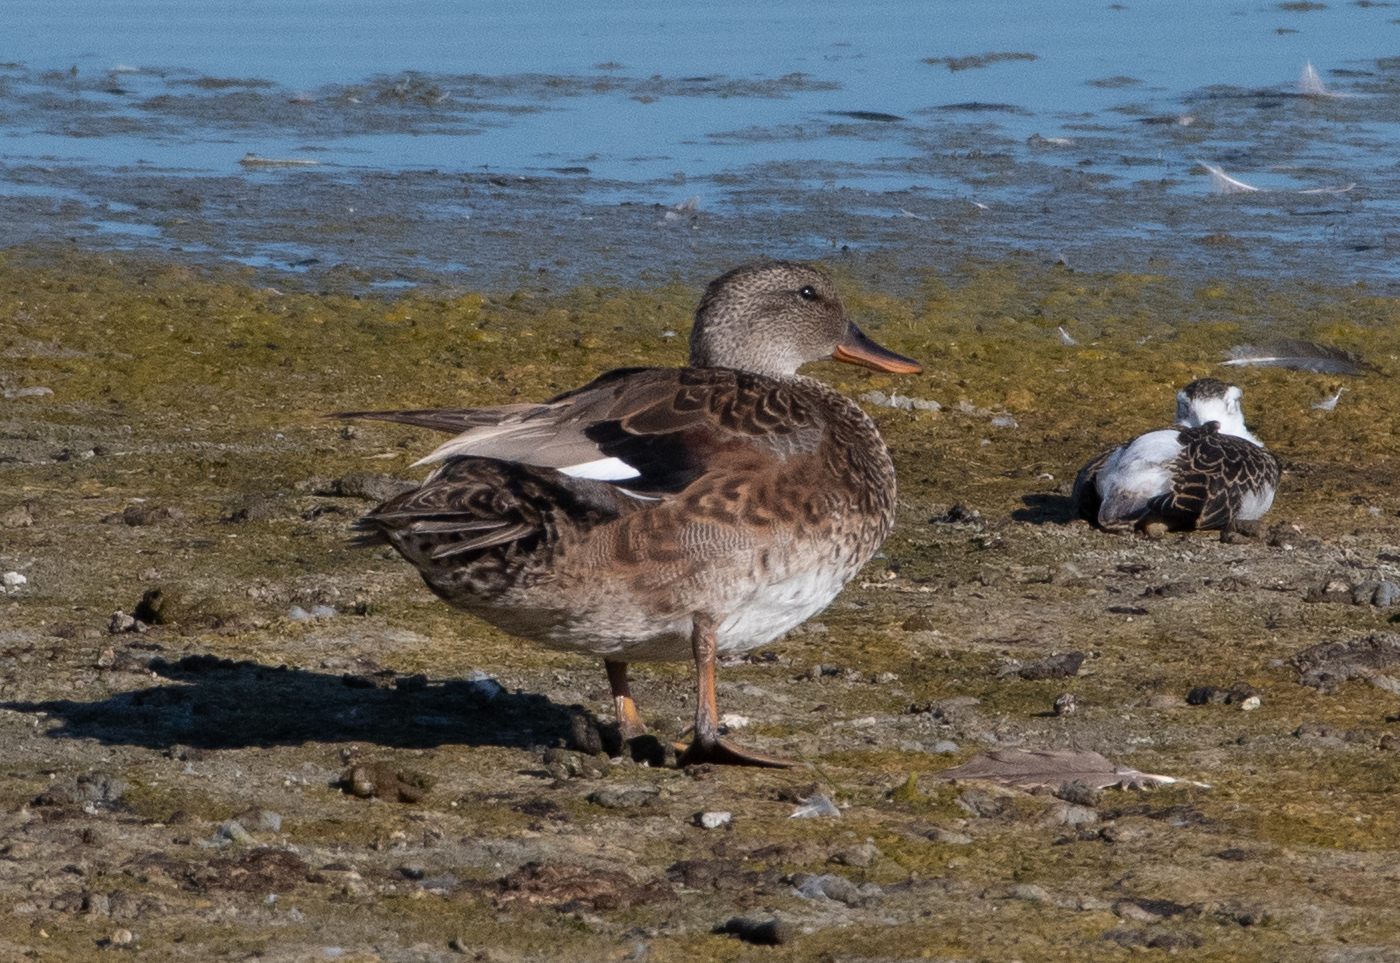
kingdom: Animalia
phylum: Chordata
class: Aves
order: Anseriformes
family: Anatidae
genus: Mareca
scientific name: Mareca strepera
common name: Gadwall
